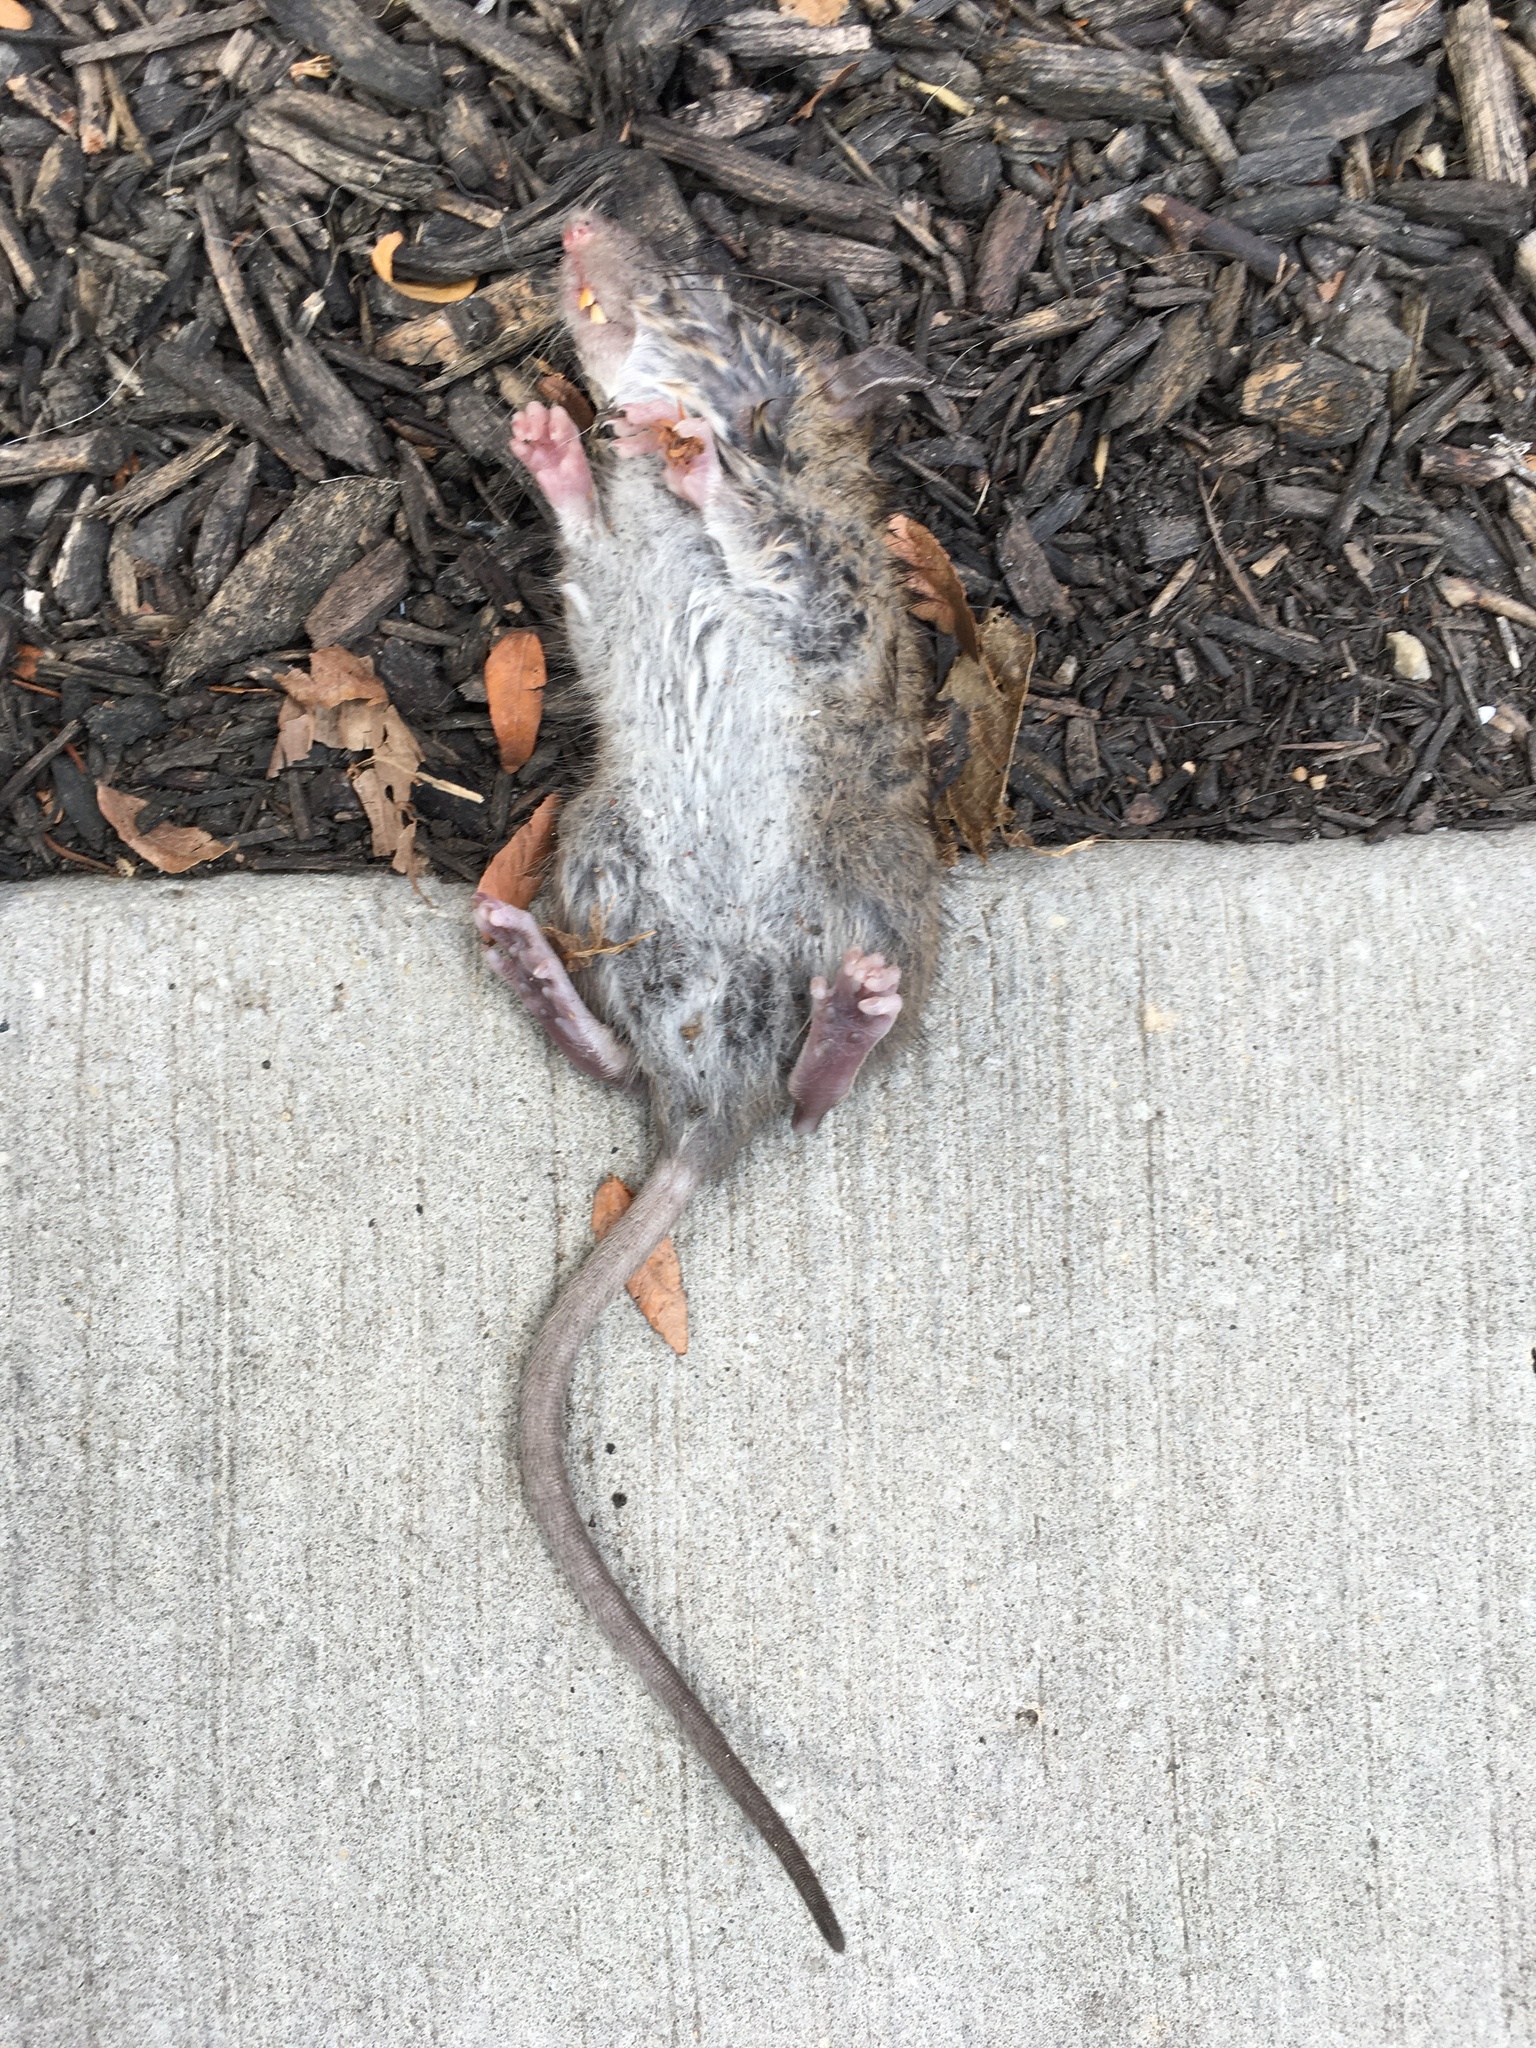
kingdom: Animalia
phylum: Chordata
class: Mammalia
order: Rodentia
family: Muridae
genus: Rattus
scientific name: Rattus norvegicus
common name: Brown rat
